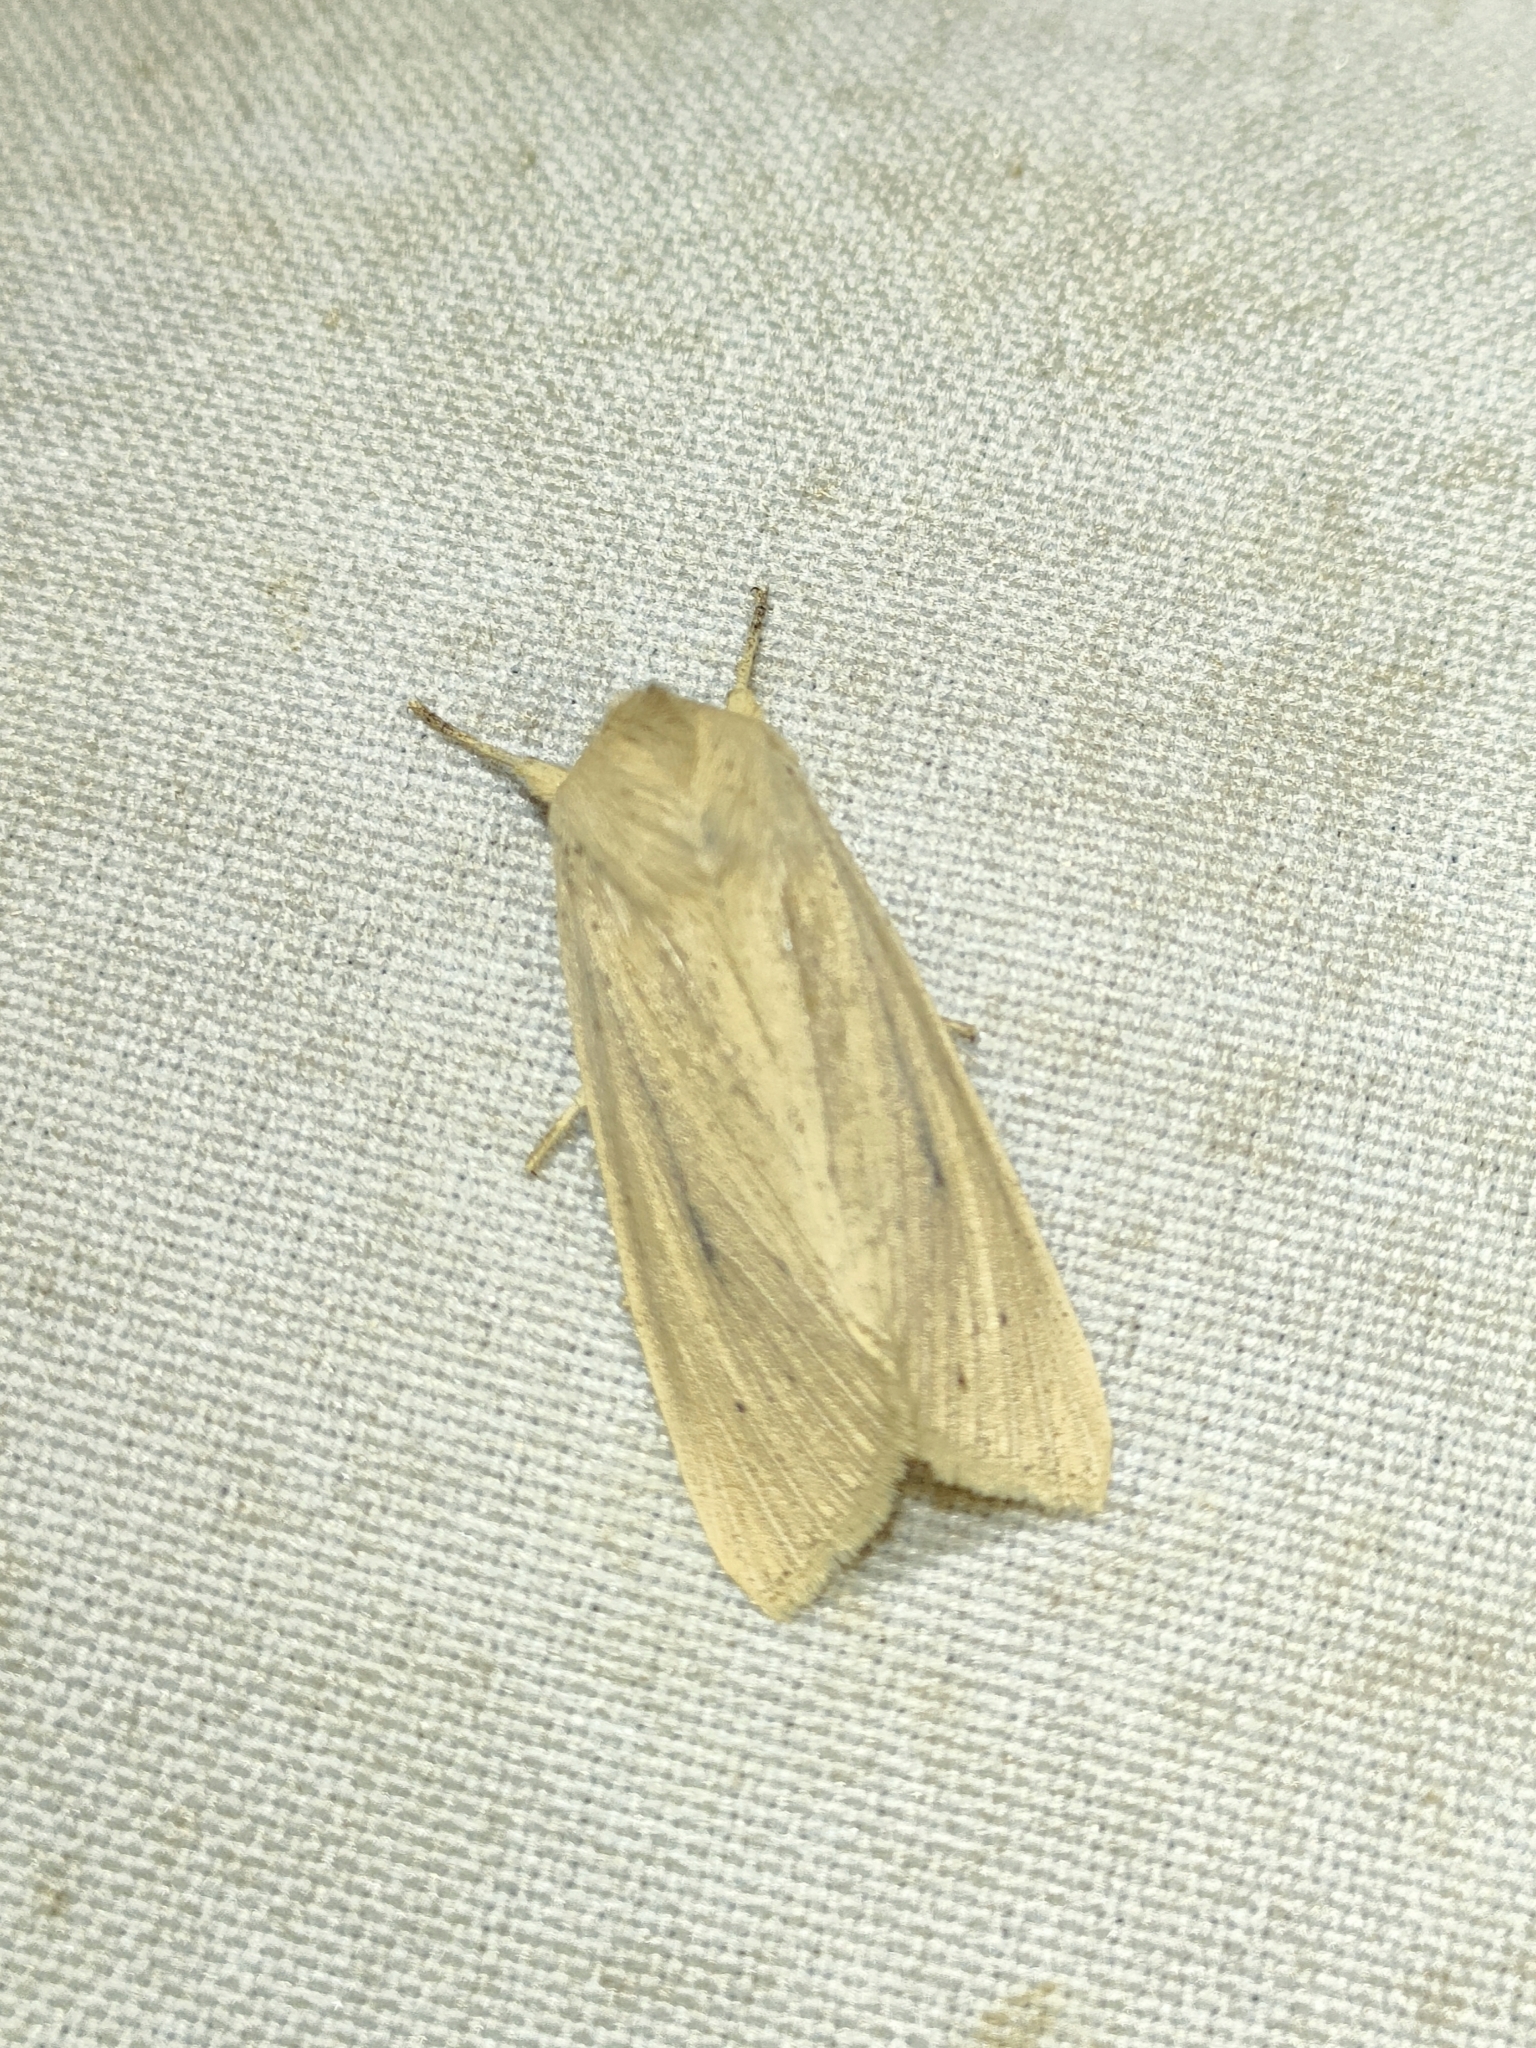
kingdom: Animalia
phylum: Arthropoda
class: Insecta
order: Lepidoptera
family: Noctuidae
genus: Rhizedra
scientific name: Rhizedra lutosa
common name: Large wainscot
